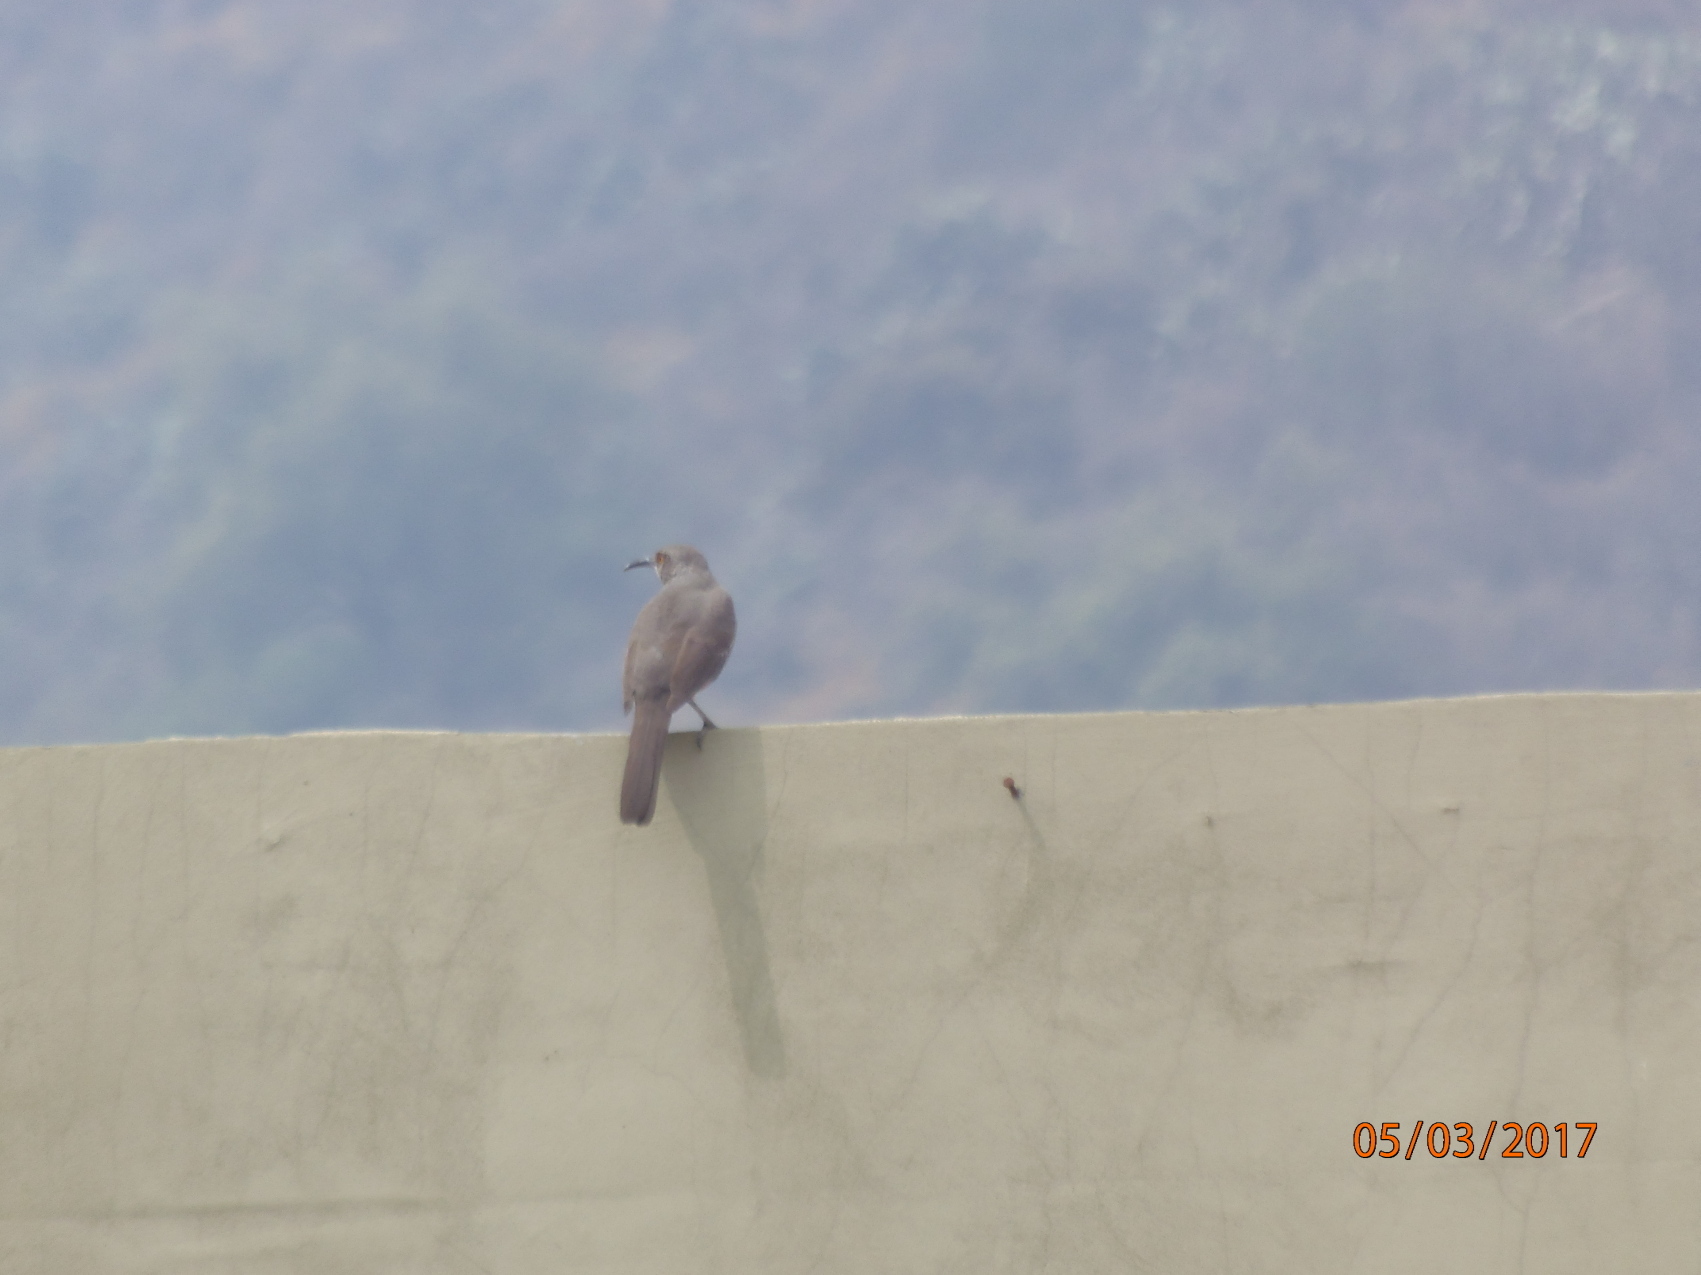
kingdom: Animalia
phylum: Chordata
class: Aves
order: Passeriformes
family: Mimidae
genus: Toxostoma
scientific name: Toxostoma curvirostre
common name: Curve-billed thrasher
